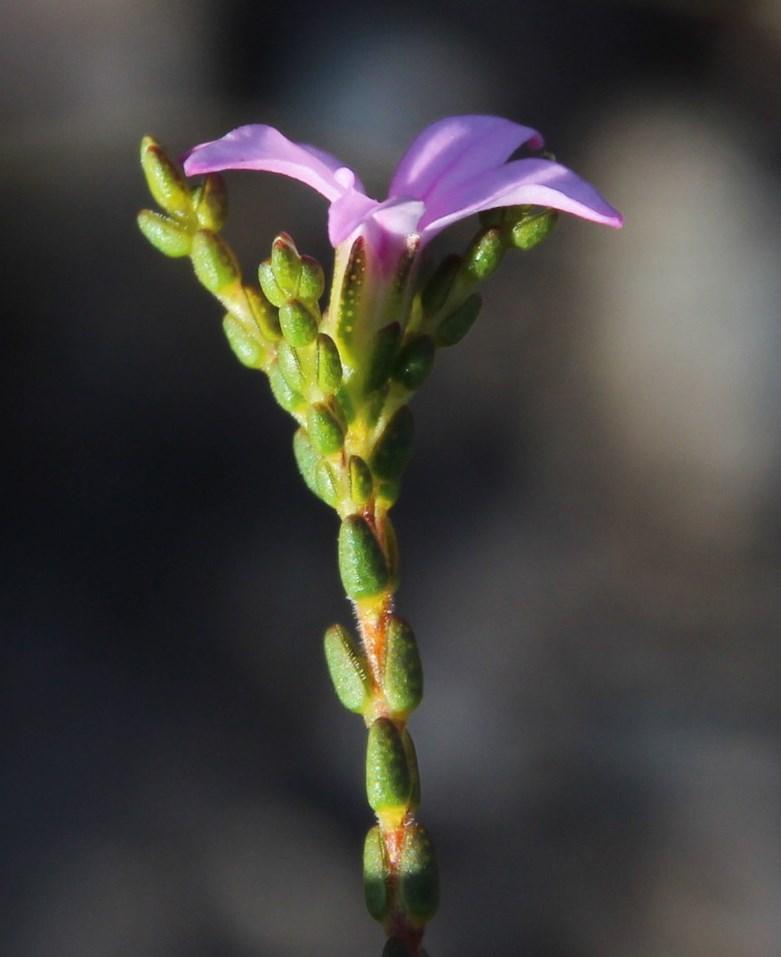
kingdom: Plantae
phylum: Tracheophyta
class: Magnoliopsida
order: Sapindales
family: Rutaceae
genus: Acmadenia
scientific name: Acmadenia macropetala
